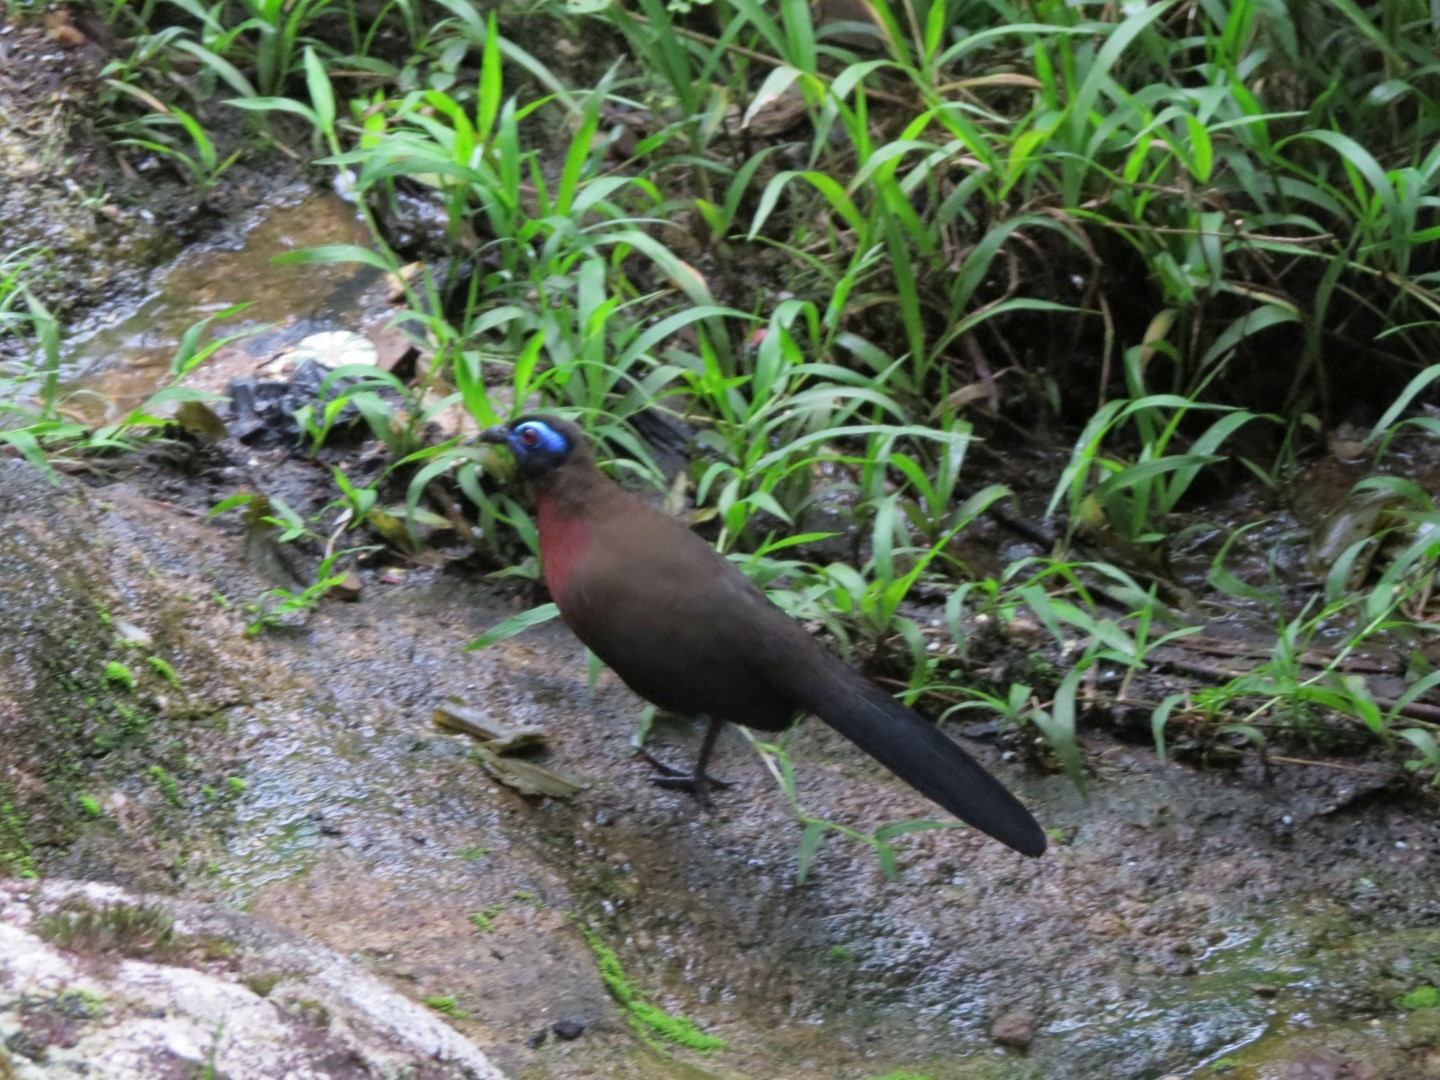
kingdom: Animalia
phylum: Chordata
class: Aves
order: Cuculiformes
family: Cuculidae
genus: Coua
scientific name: Coua serriana
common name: Red-breasted coua
